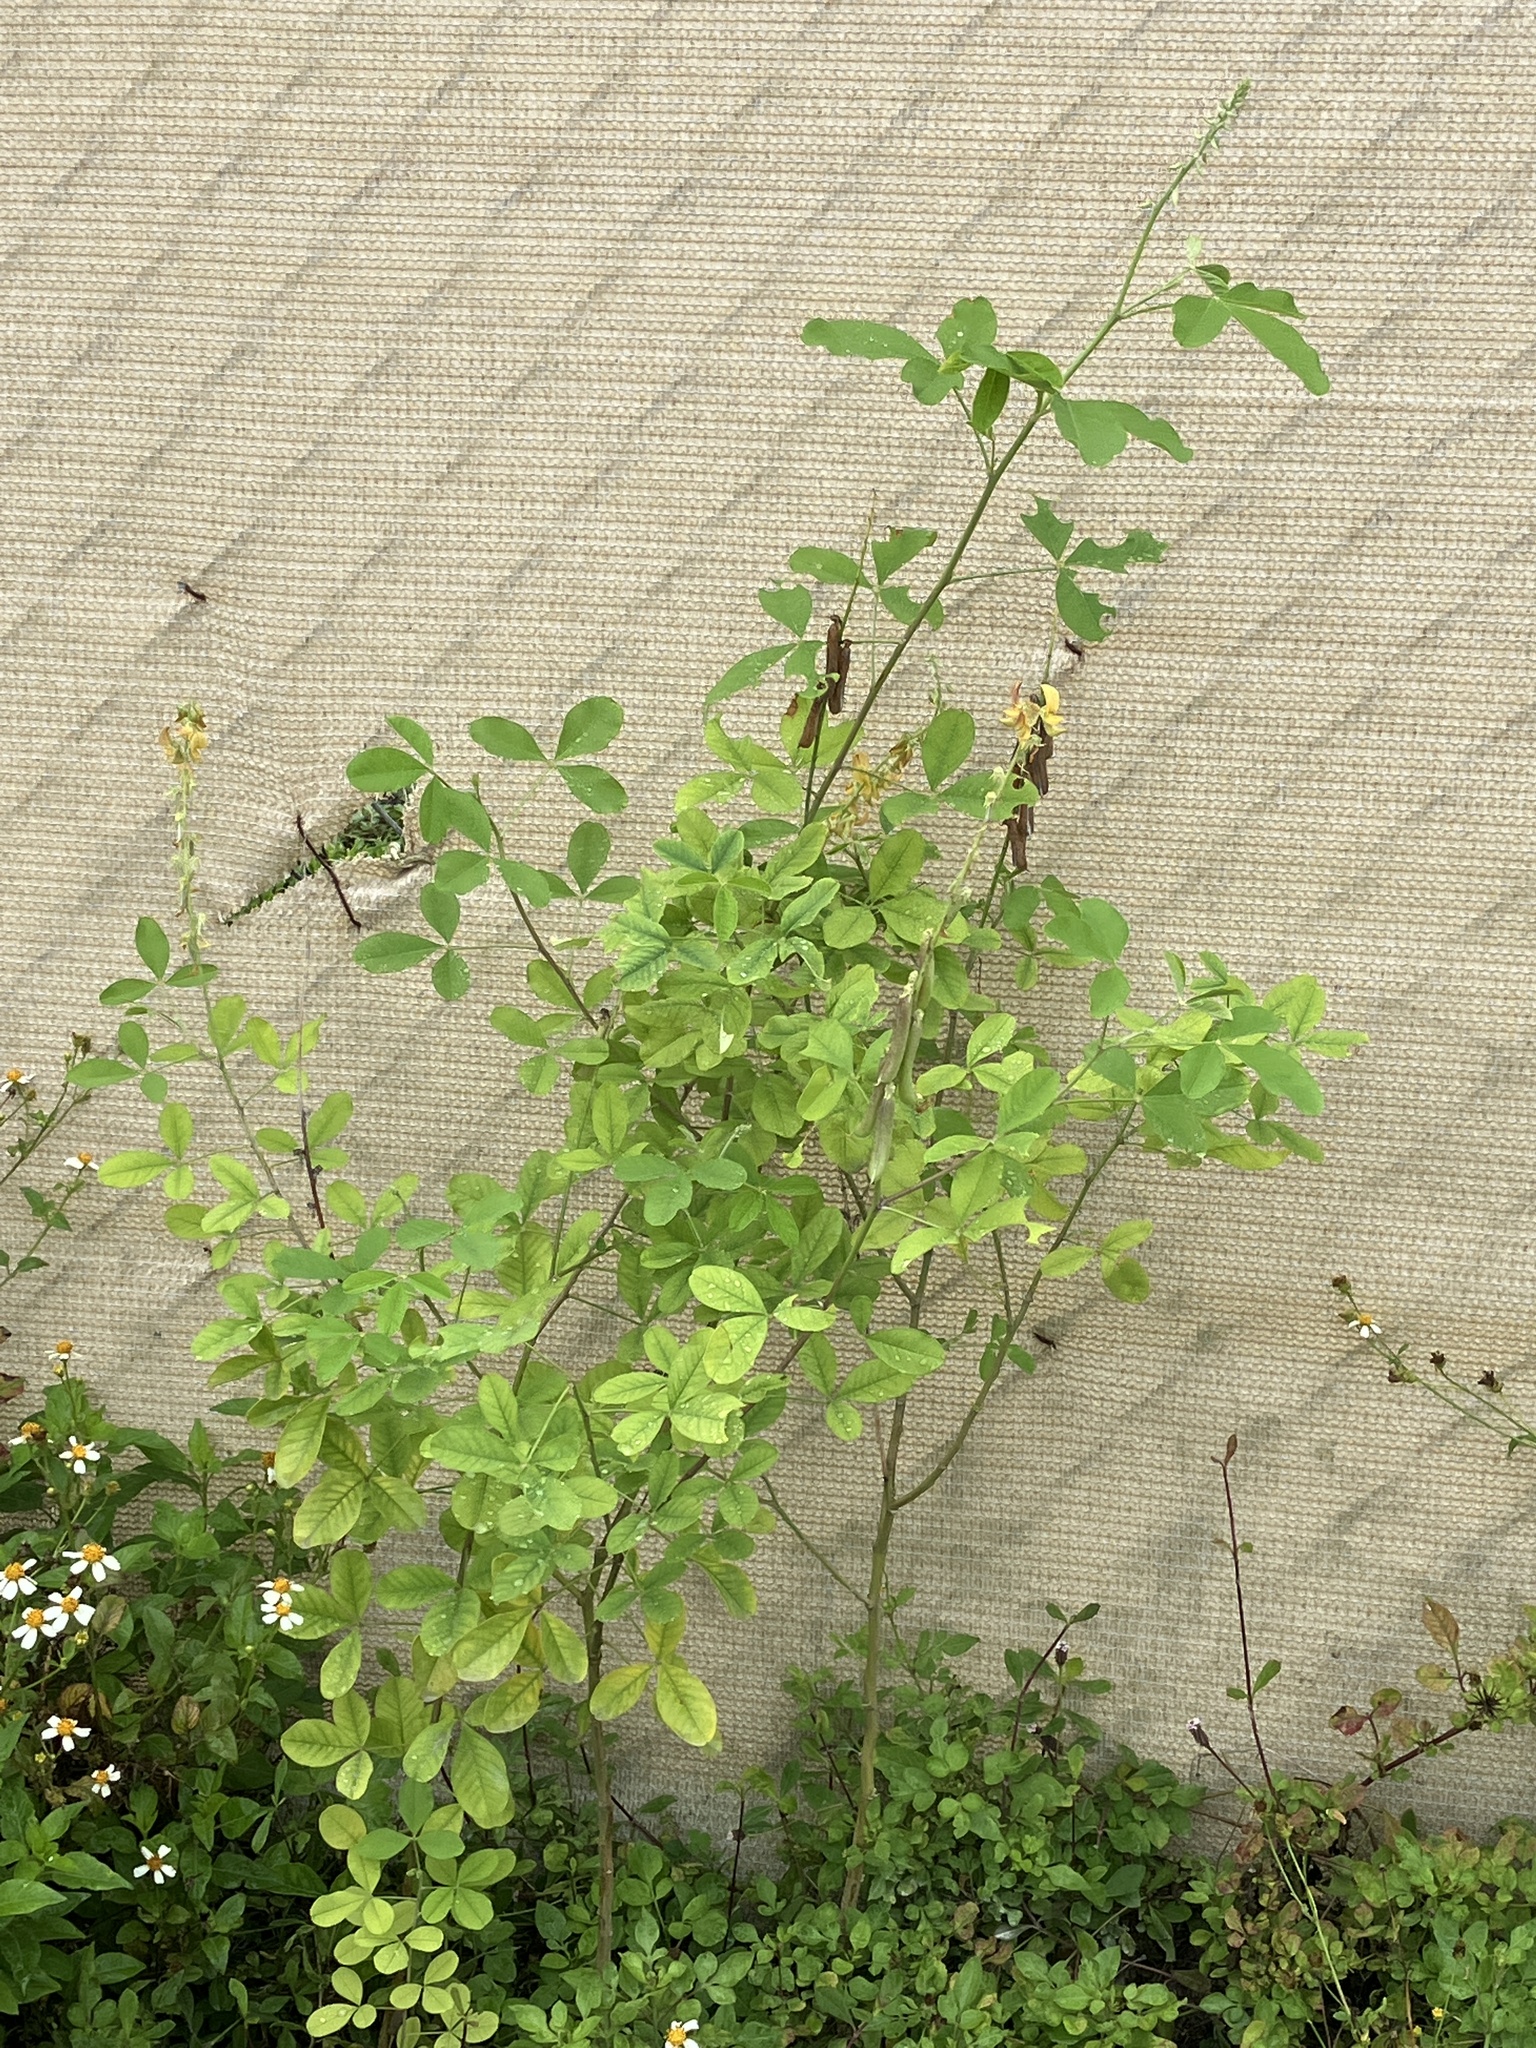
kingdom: Plantae
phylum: Tracheophyta
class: Magnoliopsida
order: Fabales
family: Fabaceae
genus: Crotalaria
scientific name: Crotalaria pallida
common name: Smooth rattlebox
